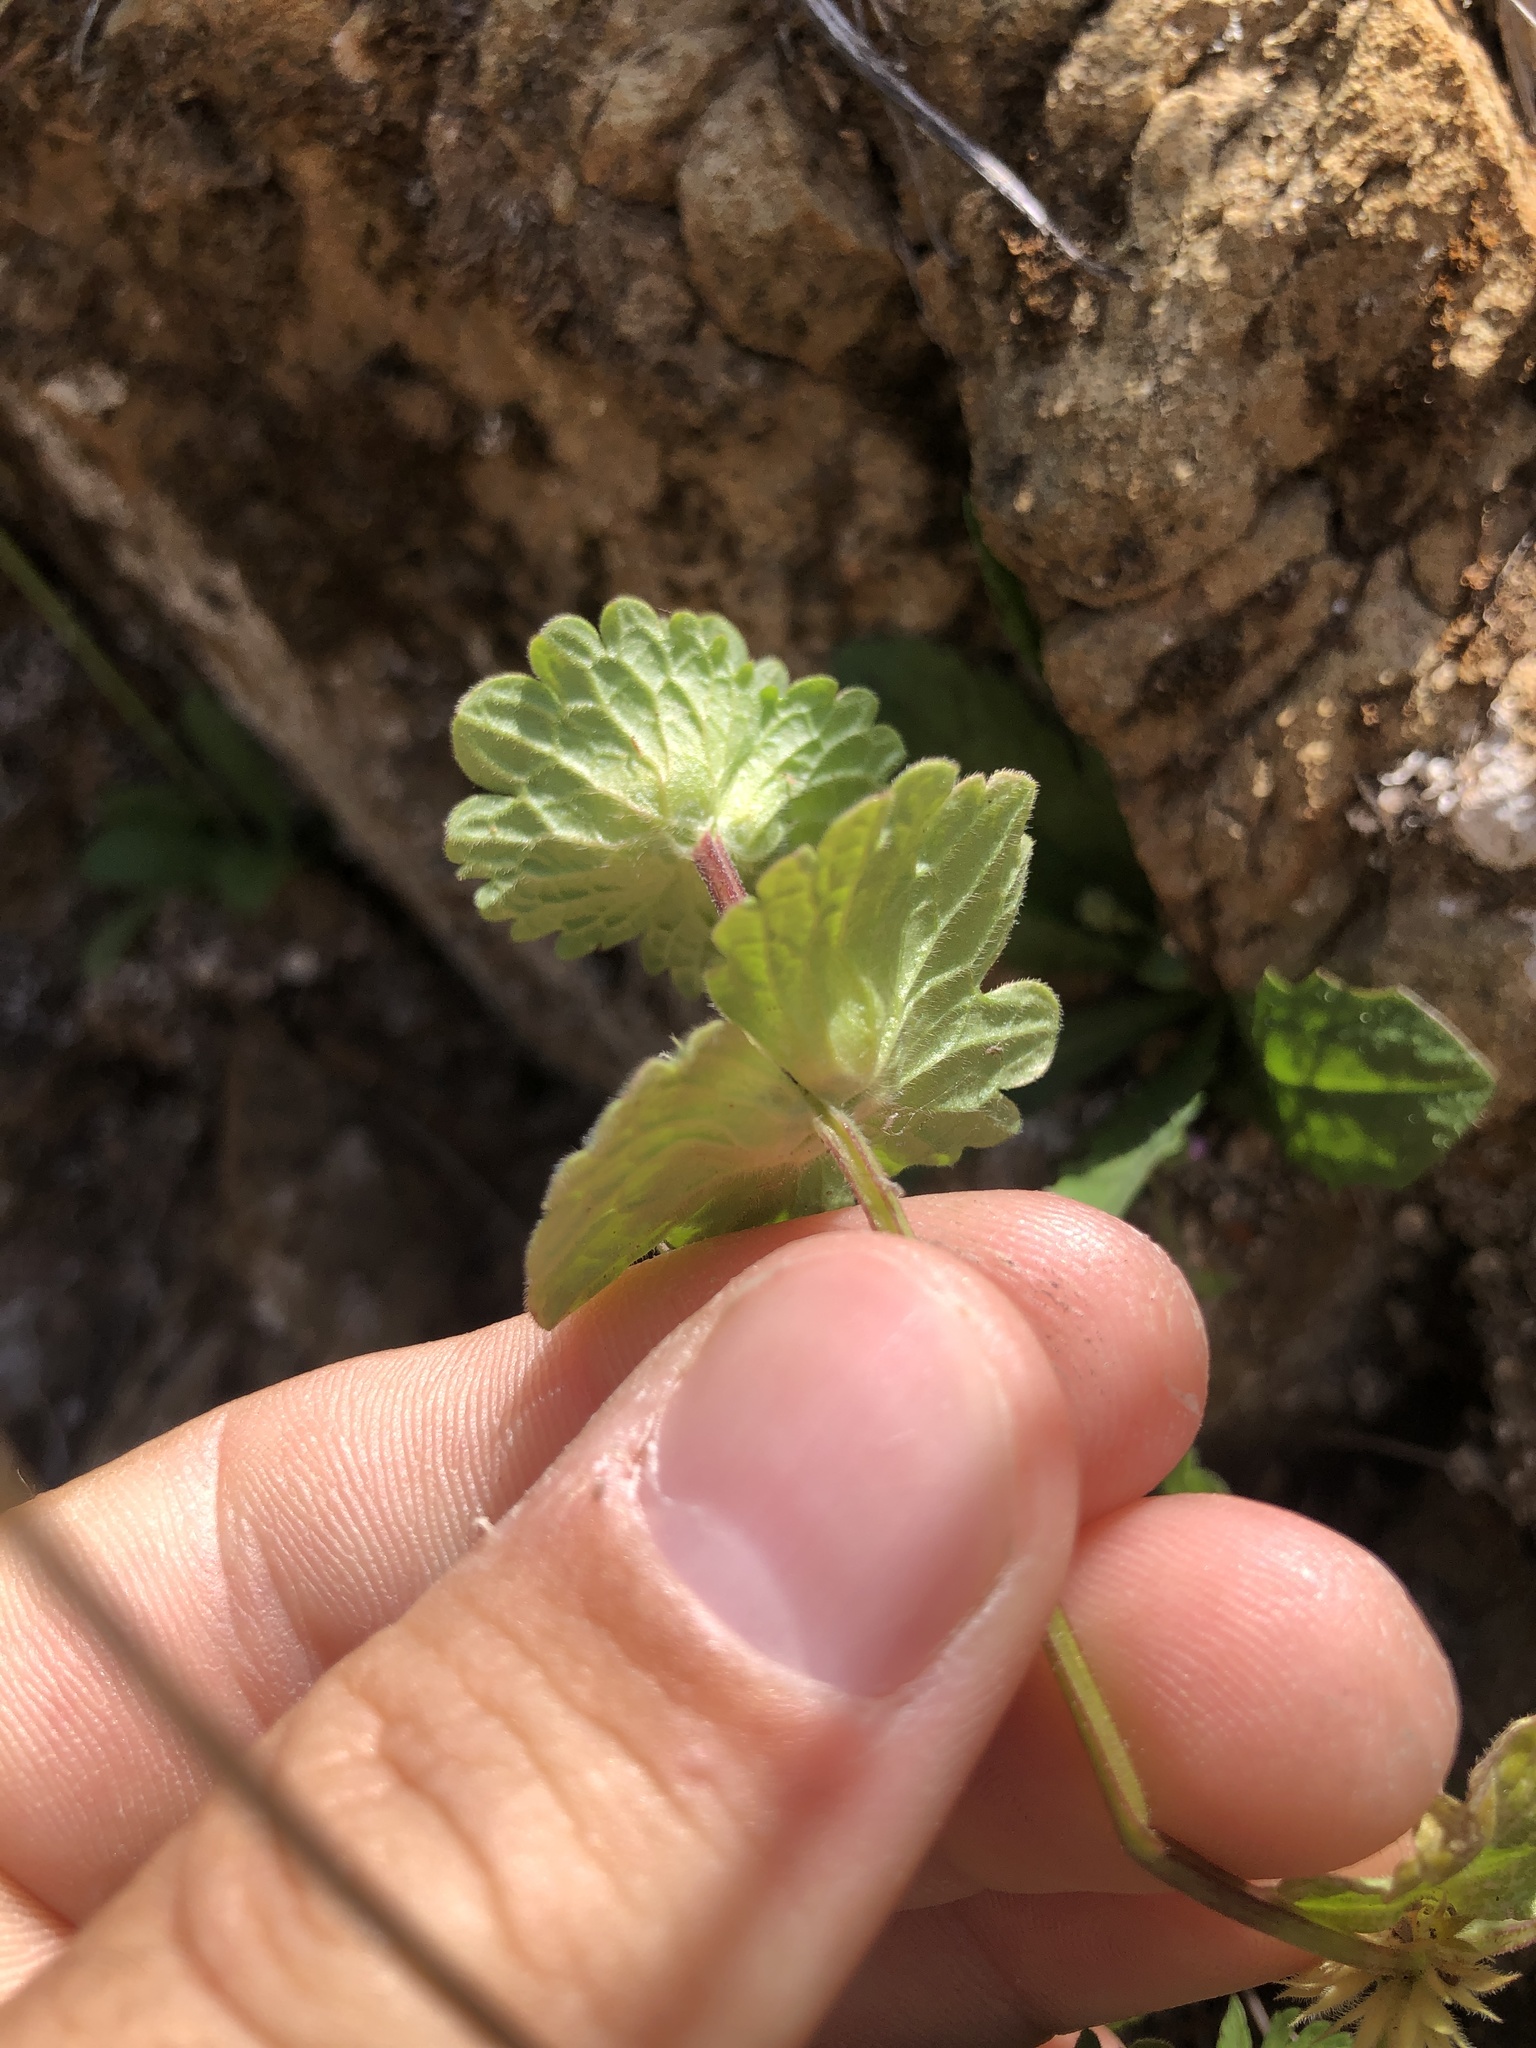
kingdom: Plantae
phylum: Tracheophyta
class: Magnoliopsida
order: Lamiales
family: Lamiaceae
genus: Lamium
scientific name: Lamium amplexicaule
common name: Henbit dead-nettle
